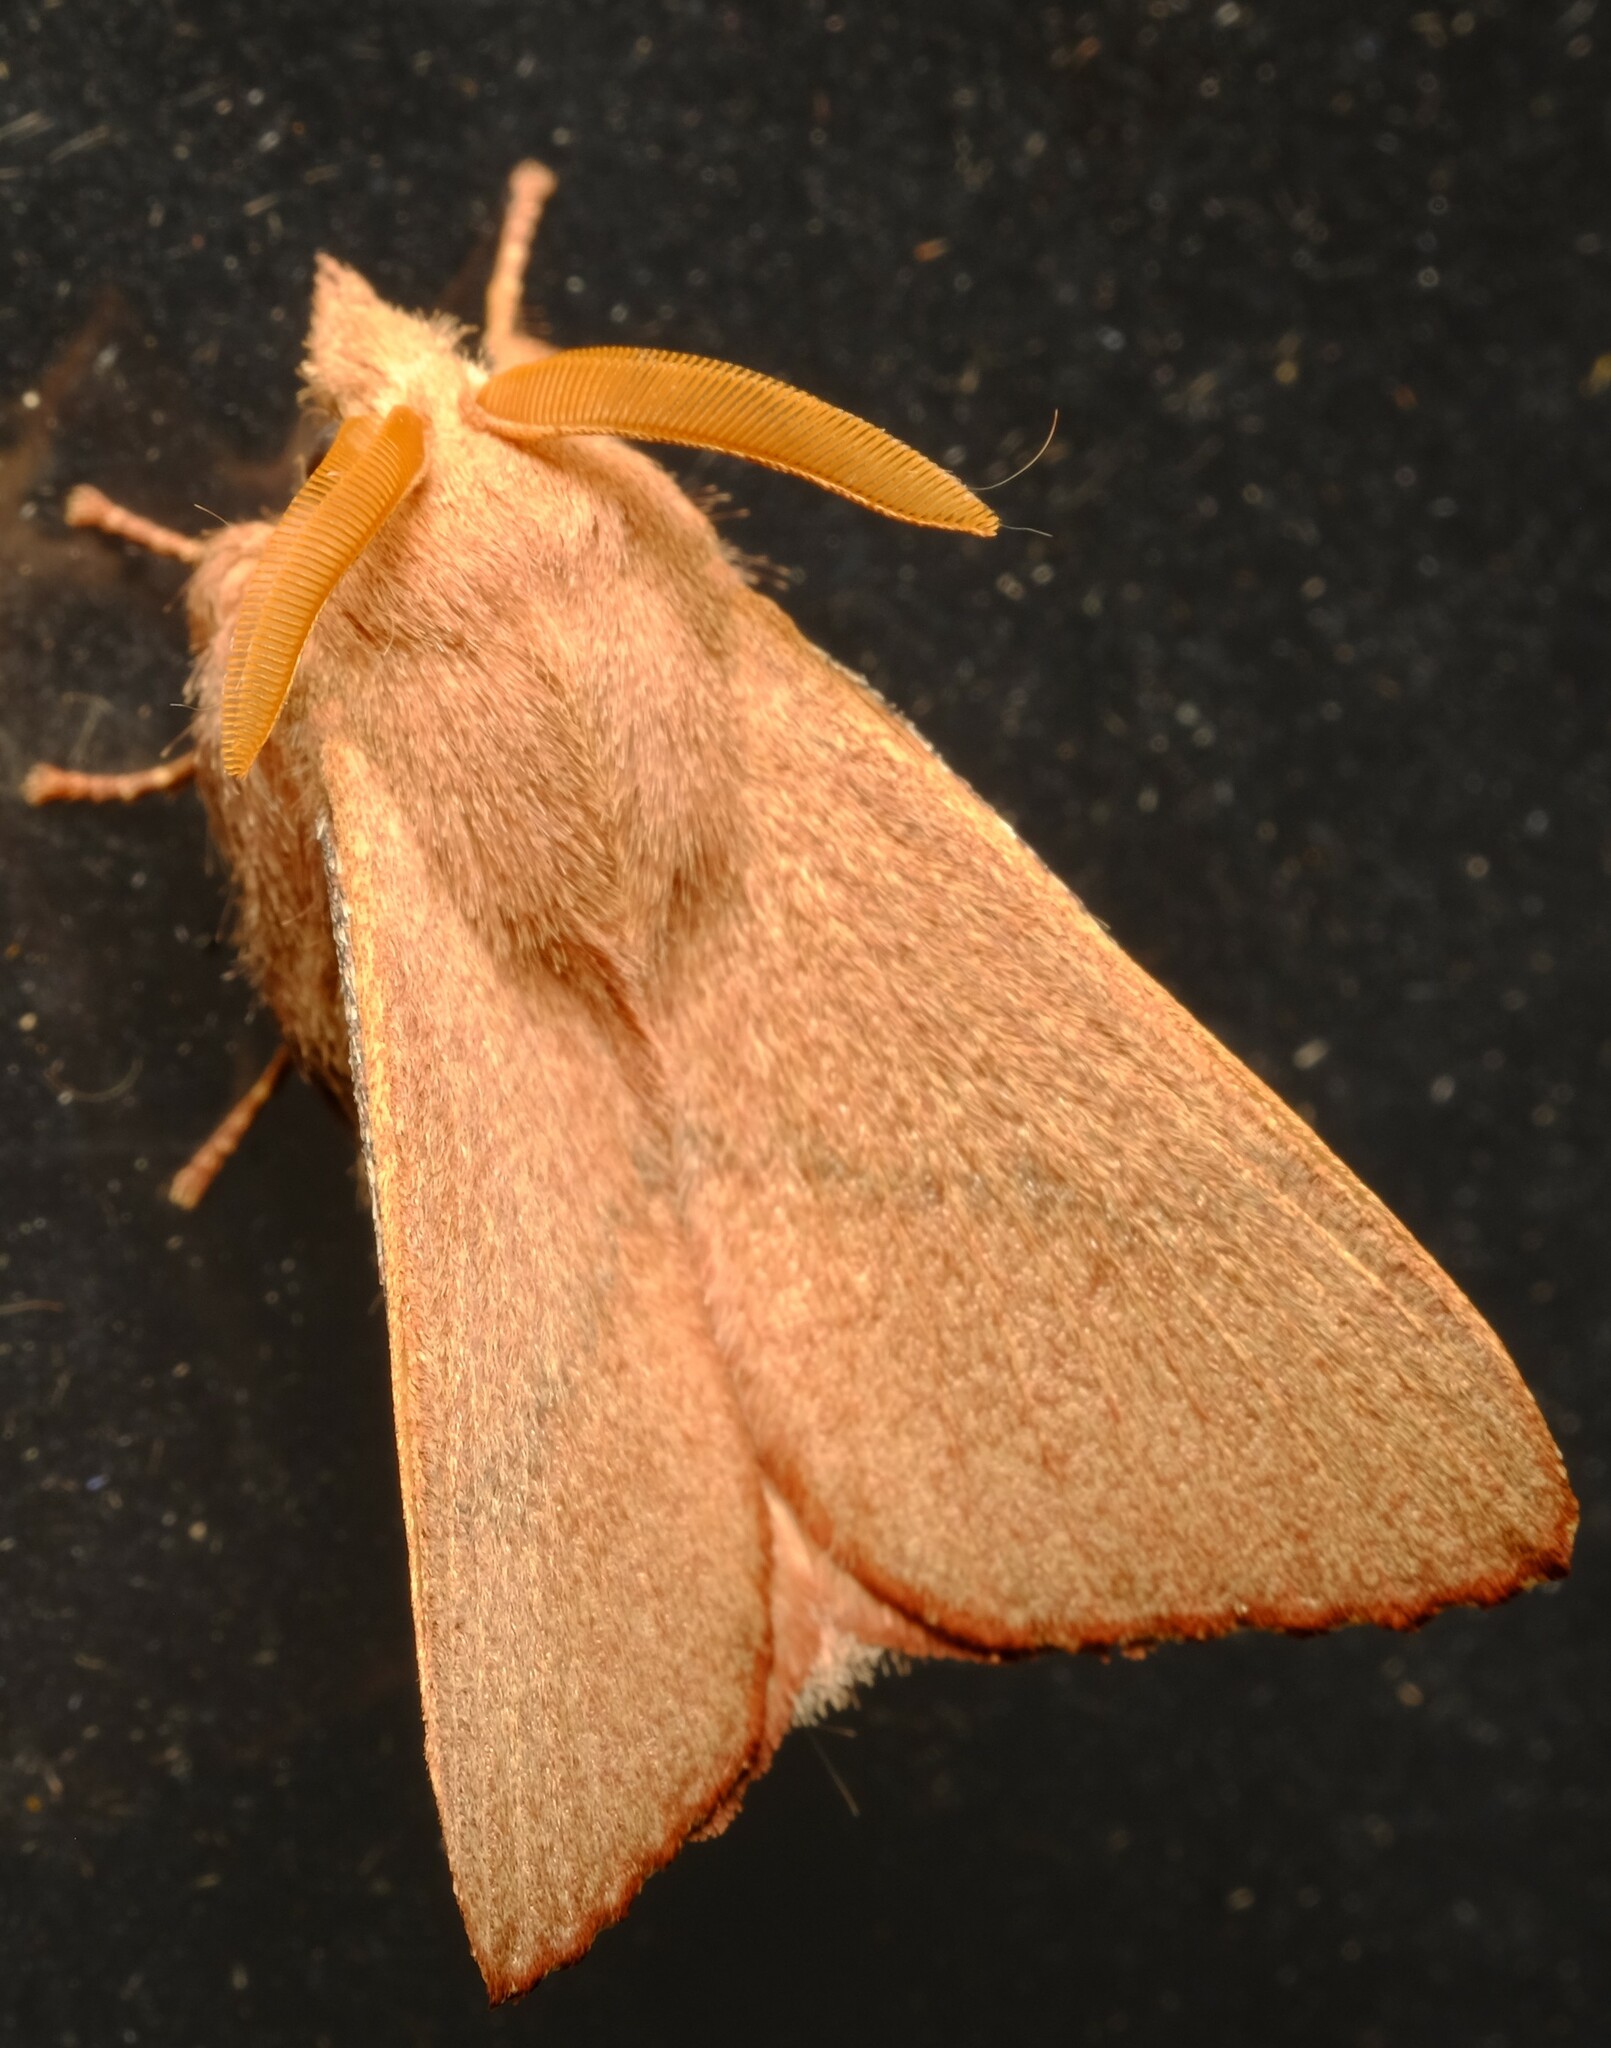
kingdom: Animalia
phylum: Arthropoda
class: Insecta
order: Lepidoptera
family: Lasiocampidae
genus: Pararguda
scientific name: Pararguda
